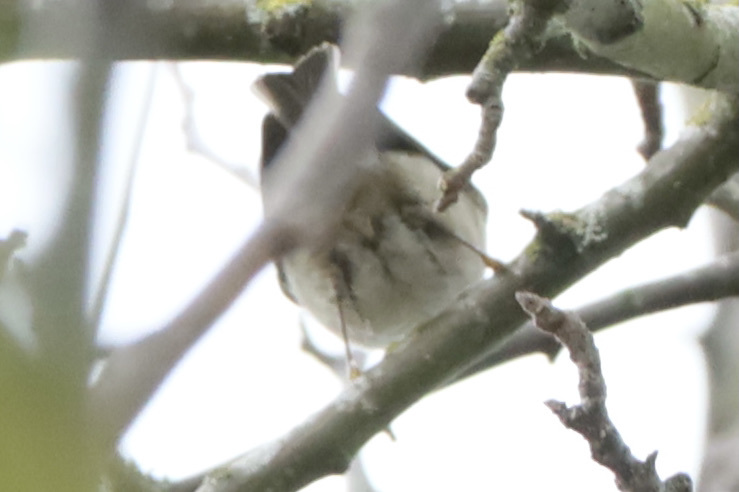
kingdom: Animalia
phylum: Chordata
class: Aves
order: Passeriformes
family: Regulidae
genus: Regulus
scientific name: Regulus satrapa
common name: Golden-crowned kinglet
